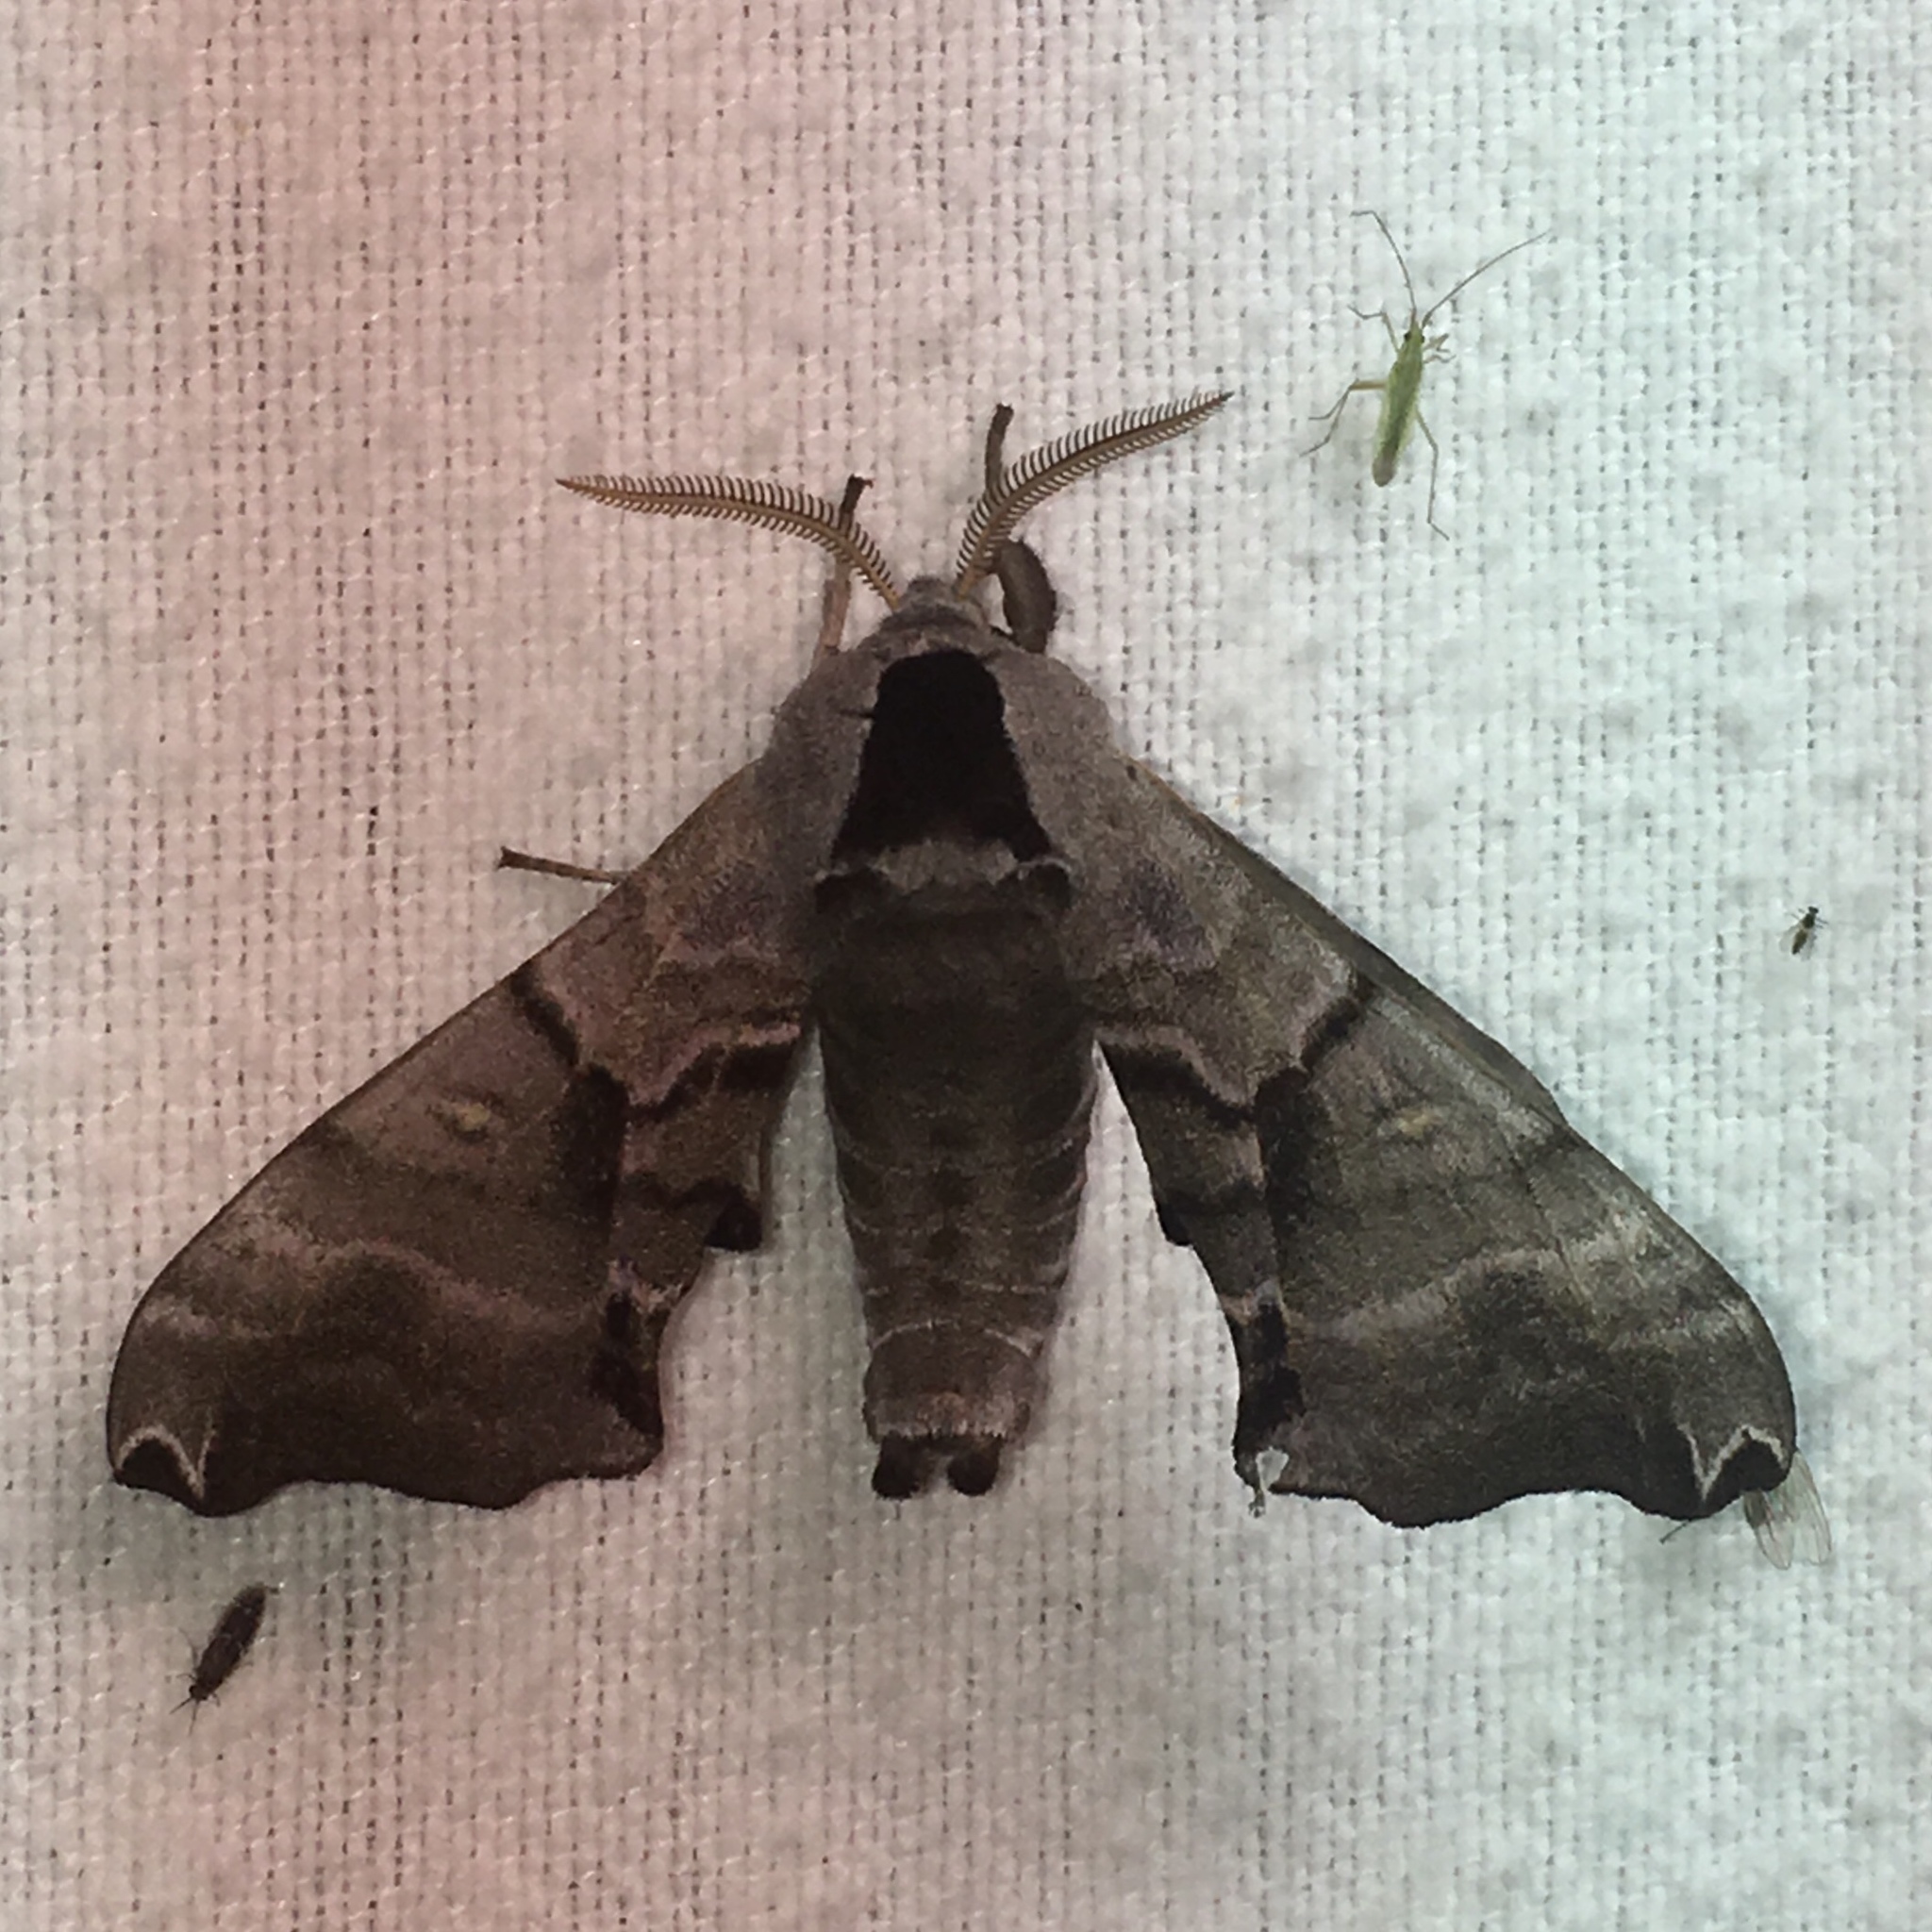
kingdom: Animalia
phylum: Arthropoda
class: Insecta
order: Lepidoptera
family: Sphingidae
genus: Smerinthus
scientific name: Smerinthus jamaicensis
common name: Twin spotted sphinx
